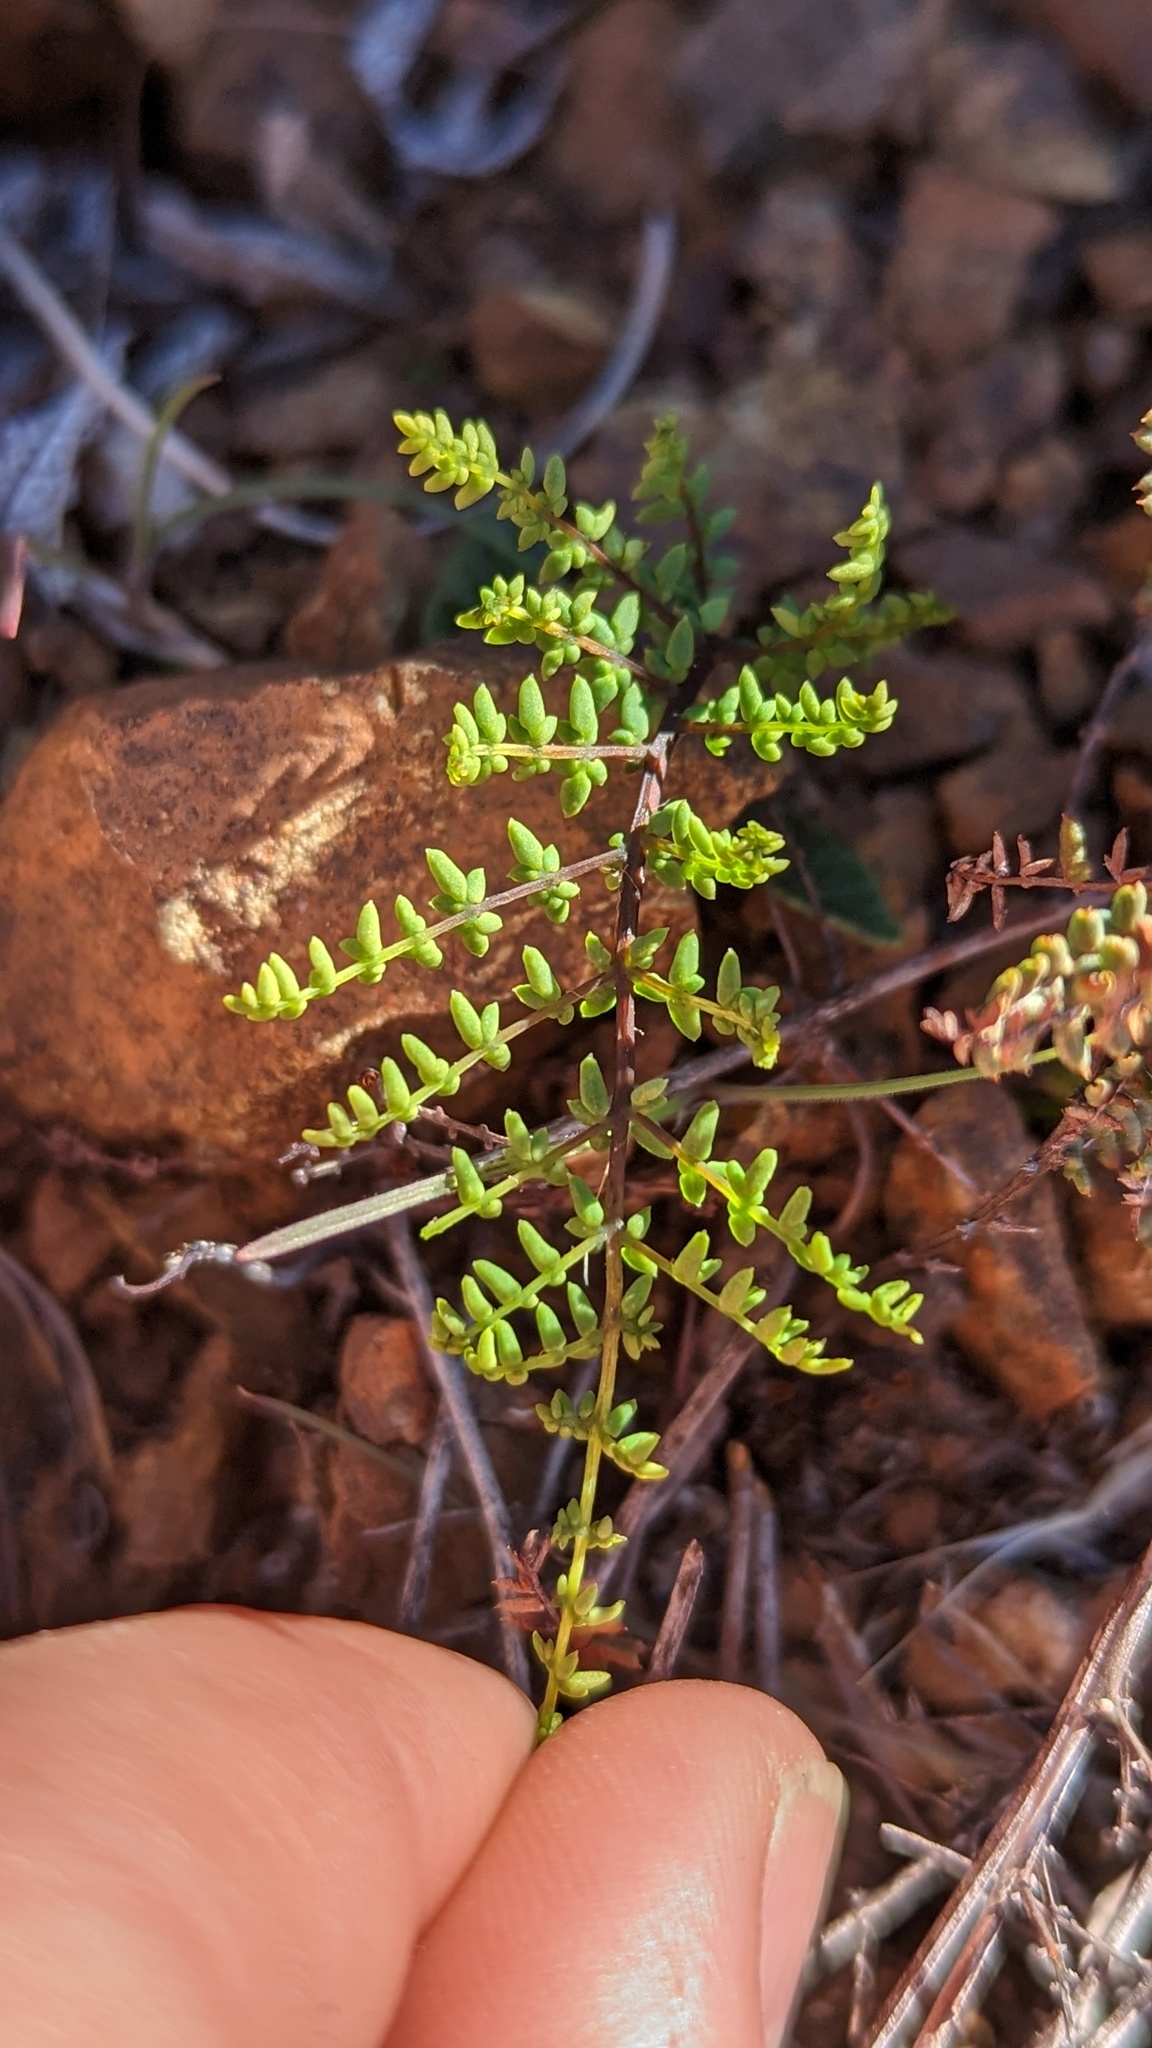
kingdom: Plantae
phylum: Tracheophyta
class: Polypodiopsida
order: Polypodiales
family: Pteridaceae
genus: Pellaea
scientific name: Pellaea mucronata
